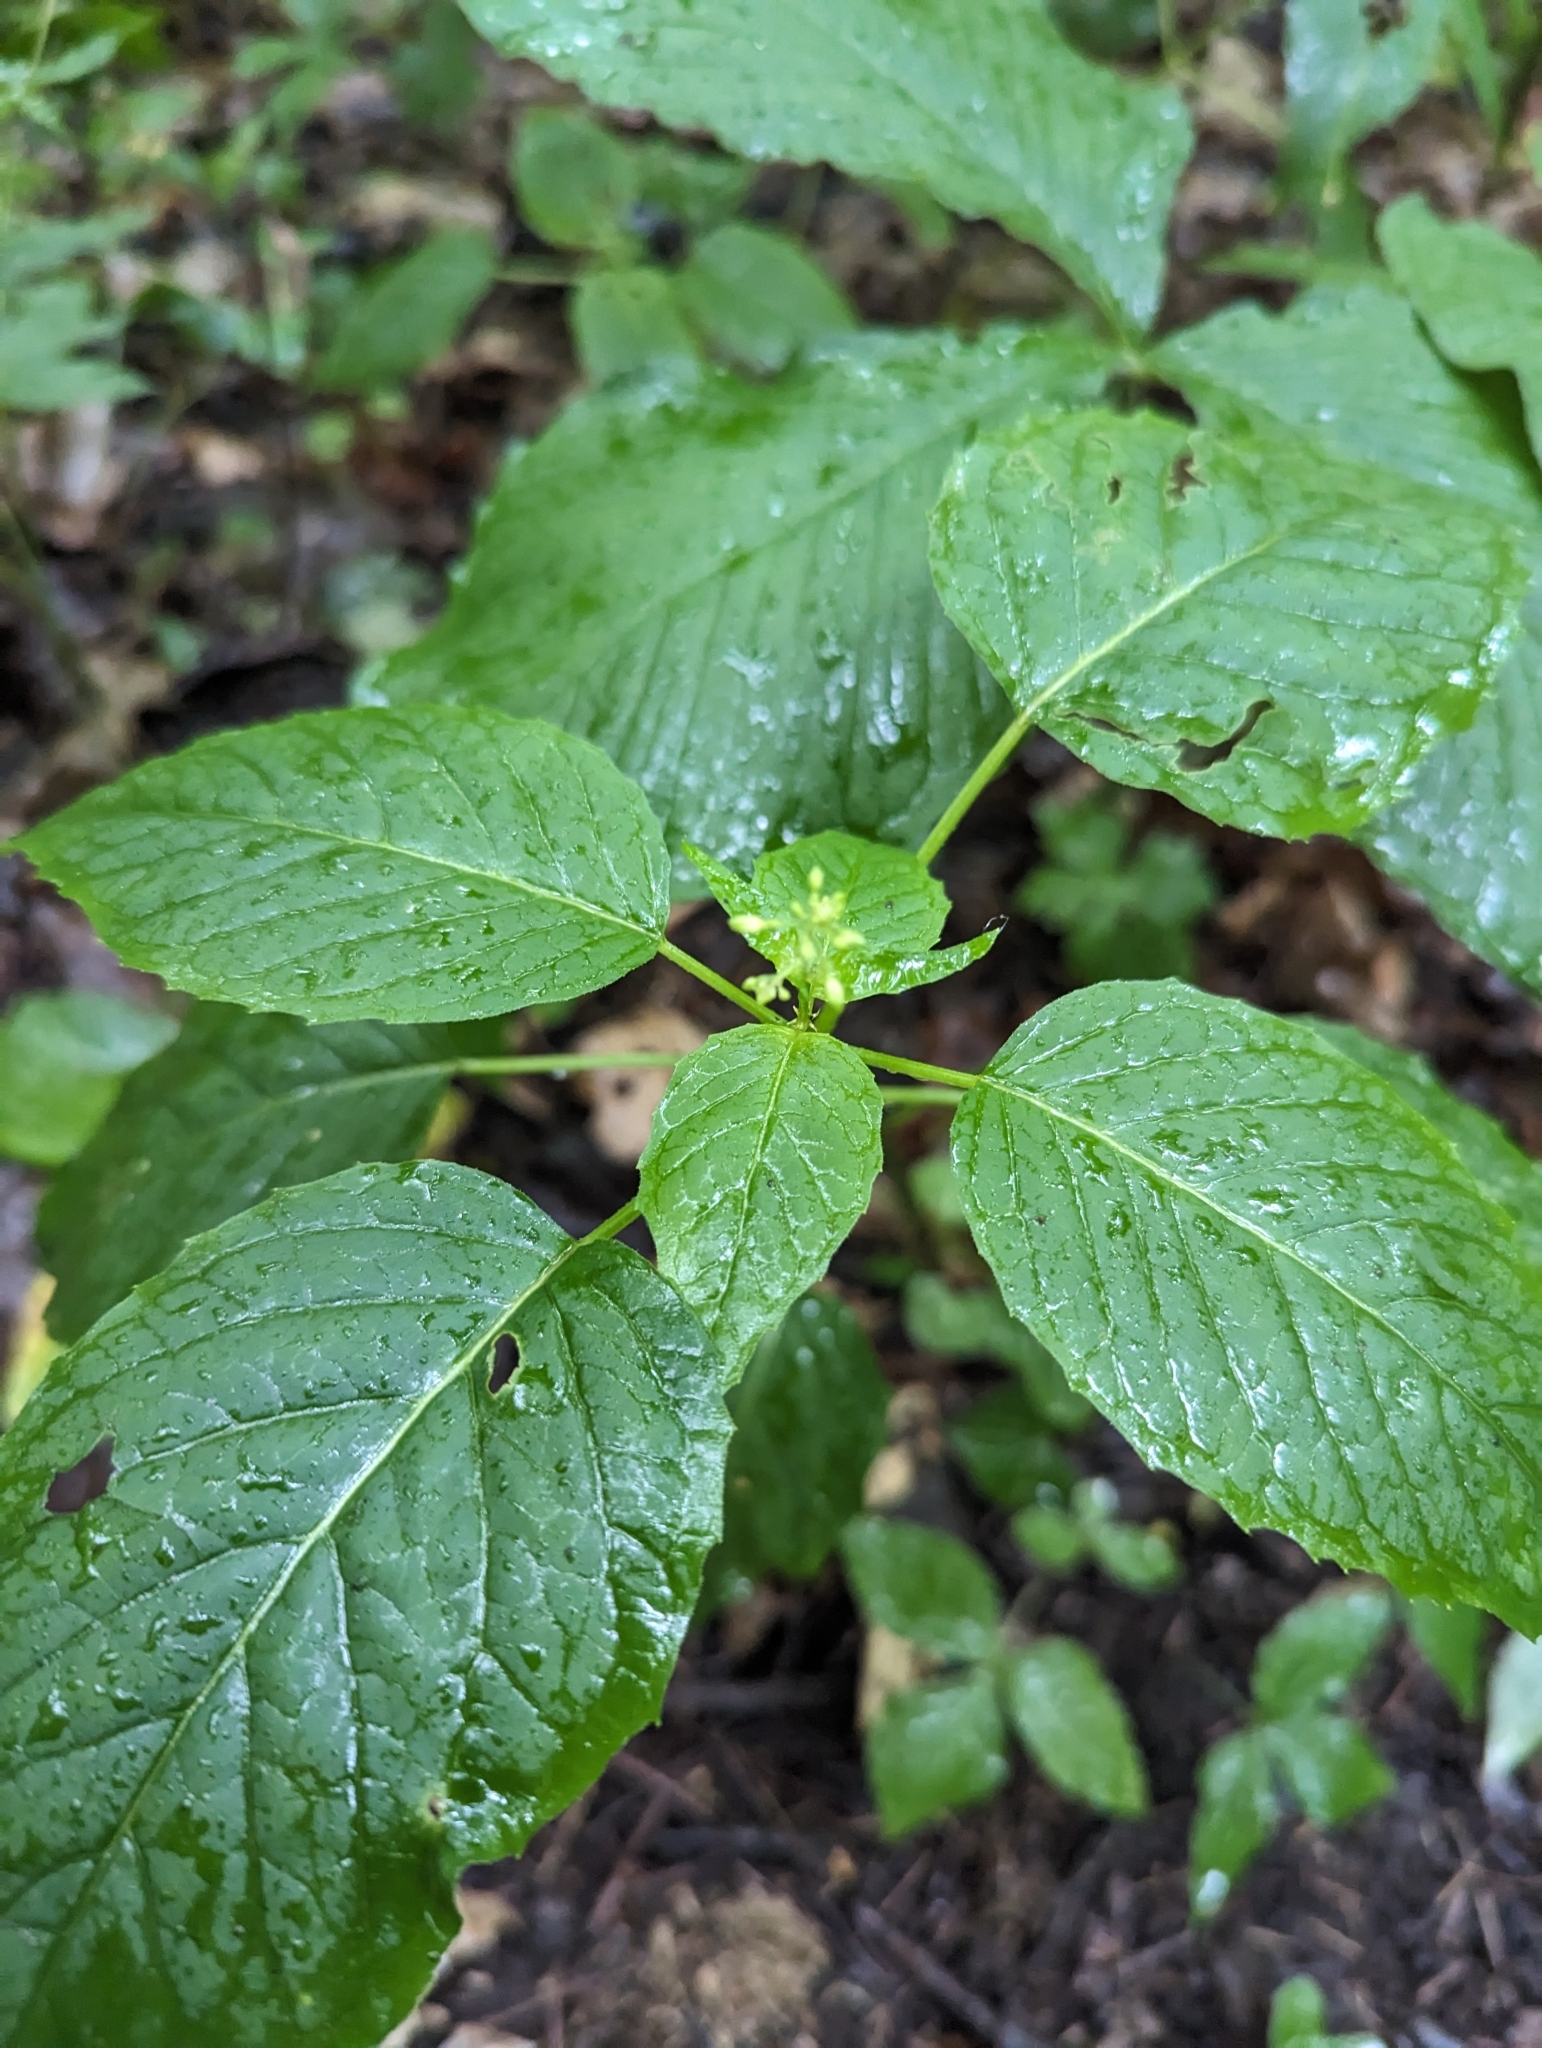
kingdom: Plantae
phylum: Tracheophyta
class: Magnoliopsida
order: Myrtales
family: Onagraceae
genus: Circaea
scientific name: Circaea canadensis
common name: Broad-leaved enchanter's nightshade
